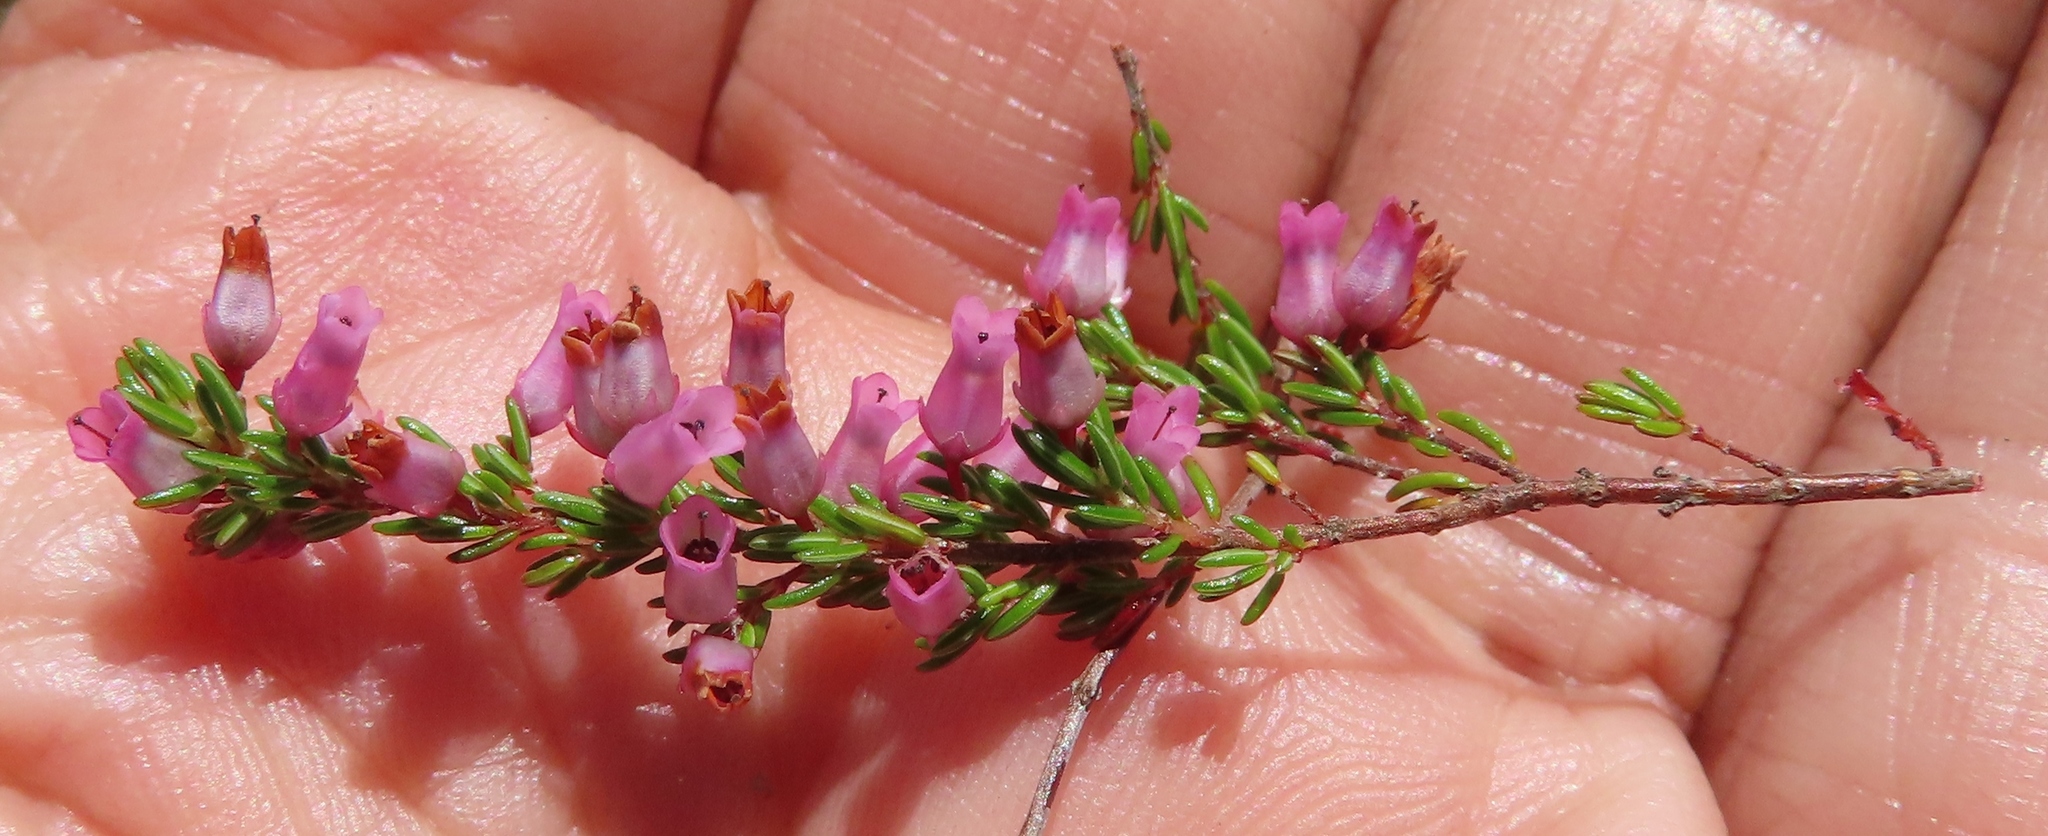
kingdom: Plantae
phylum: Tracheophyta
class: Magnoliopsida
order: Ericales
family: Ericaceae
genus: Erica
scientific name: Erica intervallaris
